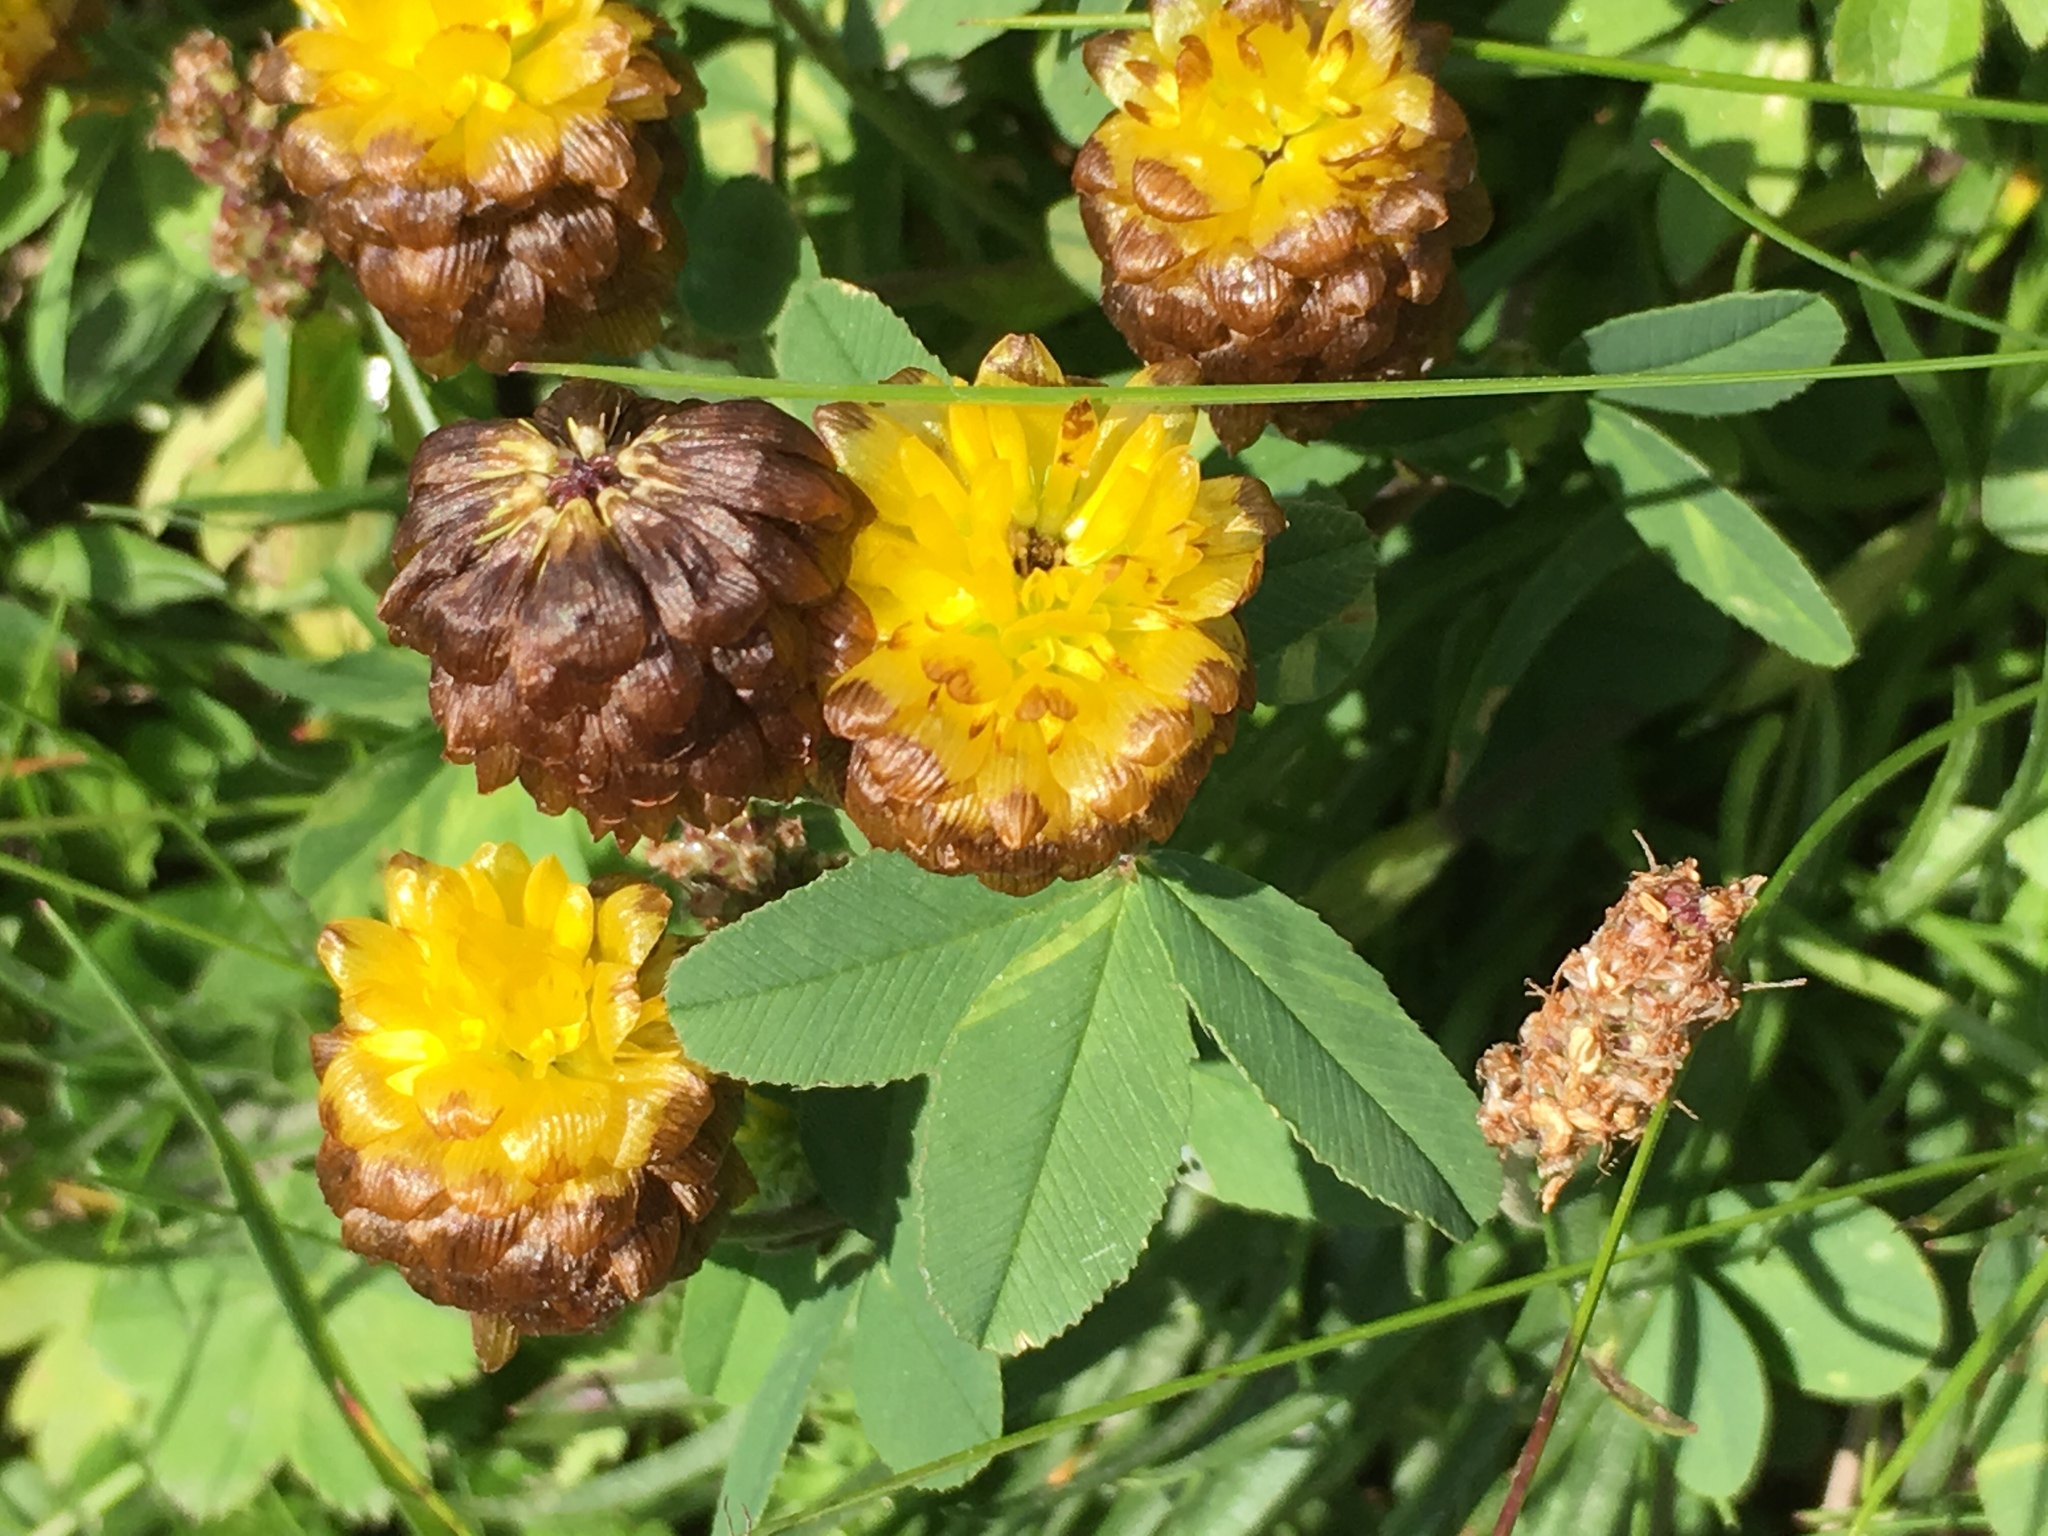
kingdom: Plantae
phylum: Tracheophyta
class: Magnoliopsida
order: Fabales
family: Fabaceae
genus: Trifolium
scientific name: Trifolium badium
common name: Brown clover
